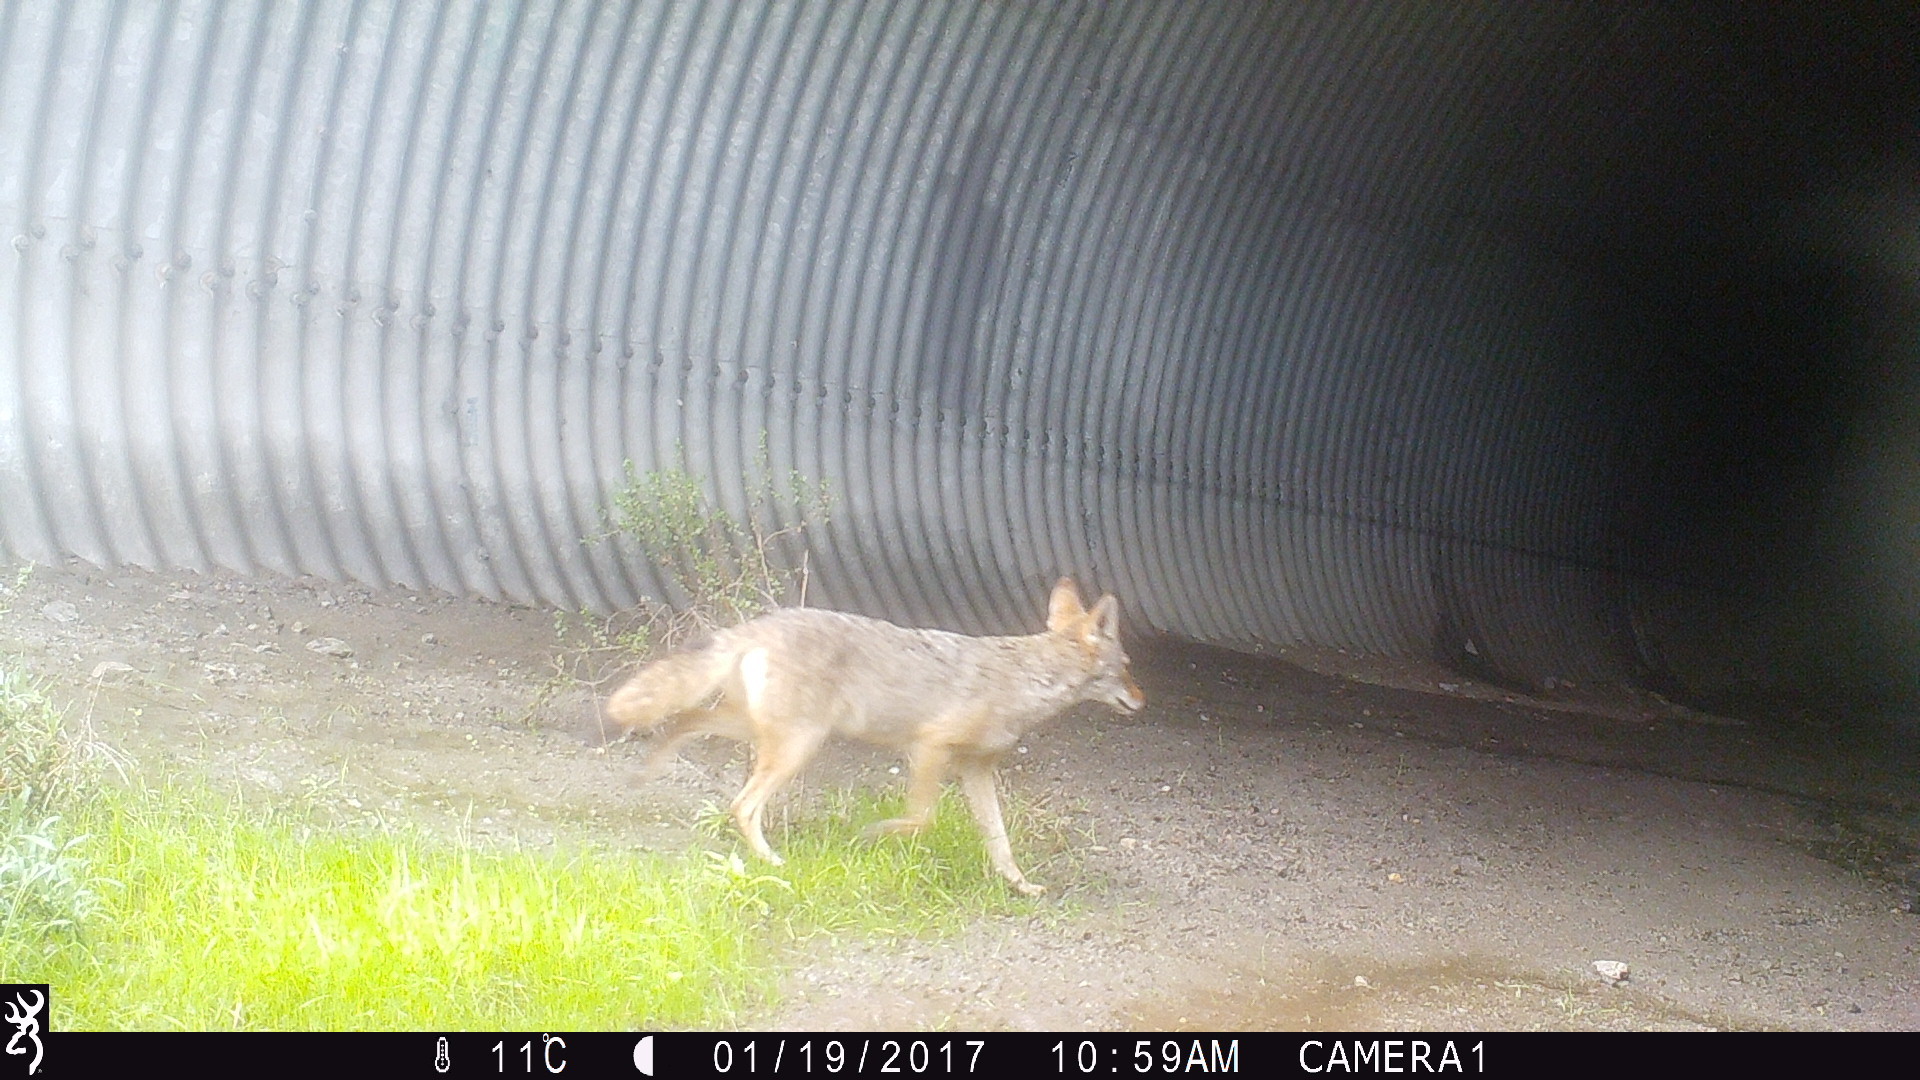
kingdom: Animalia
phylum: Chordata
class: Mammalia
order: Carnivora
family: Canidae
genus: Canis
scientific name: Canis latrans
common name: Coyote
